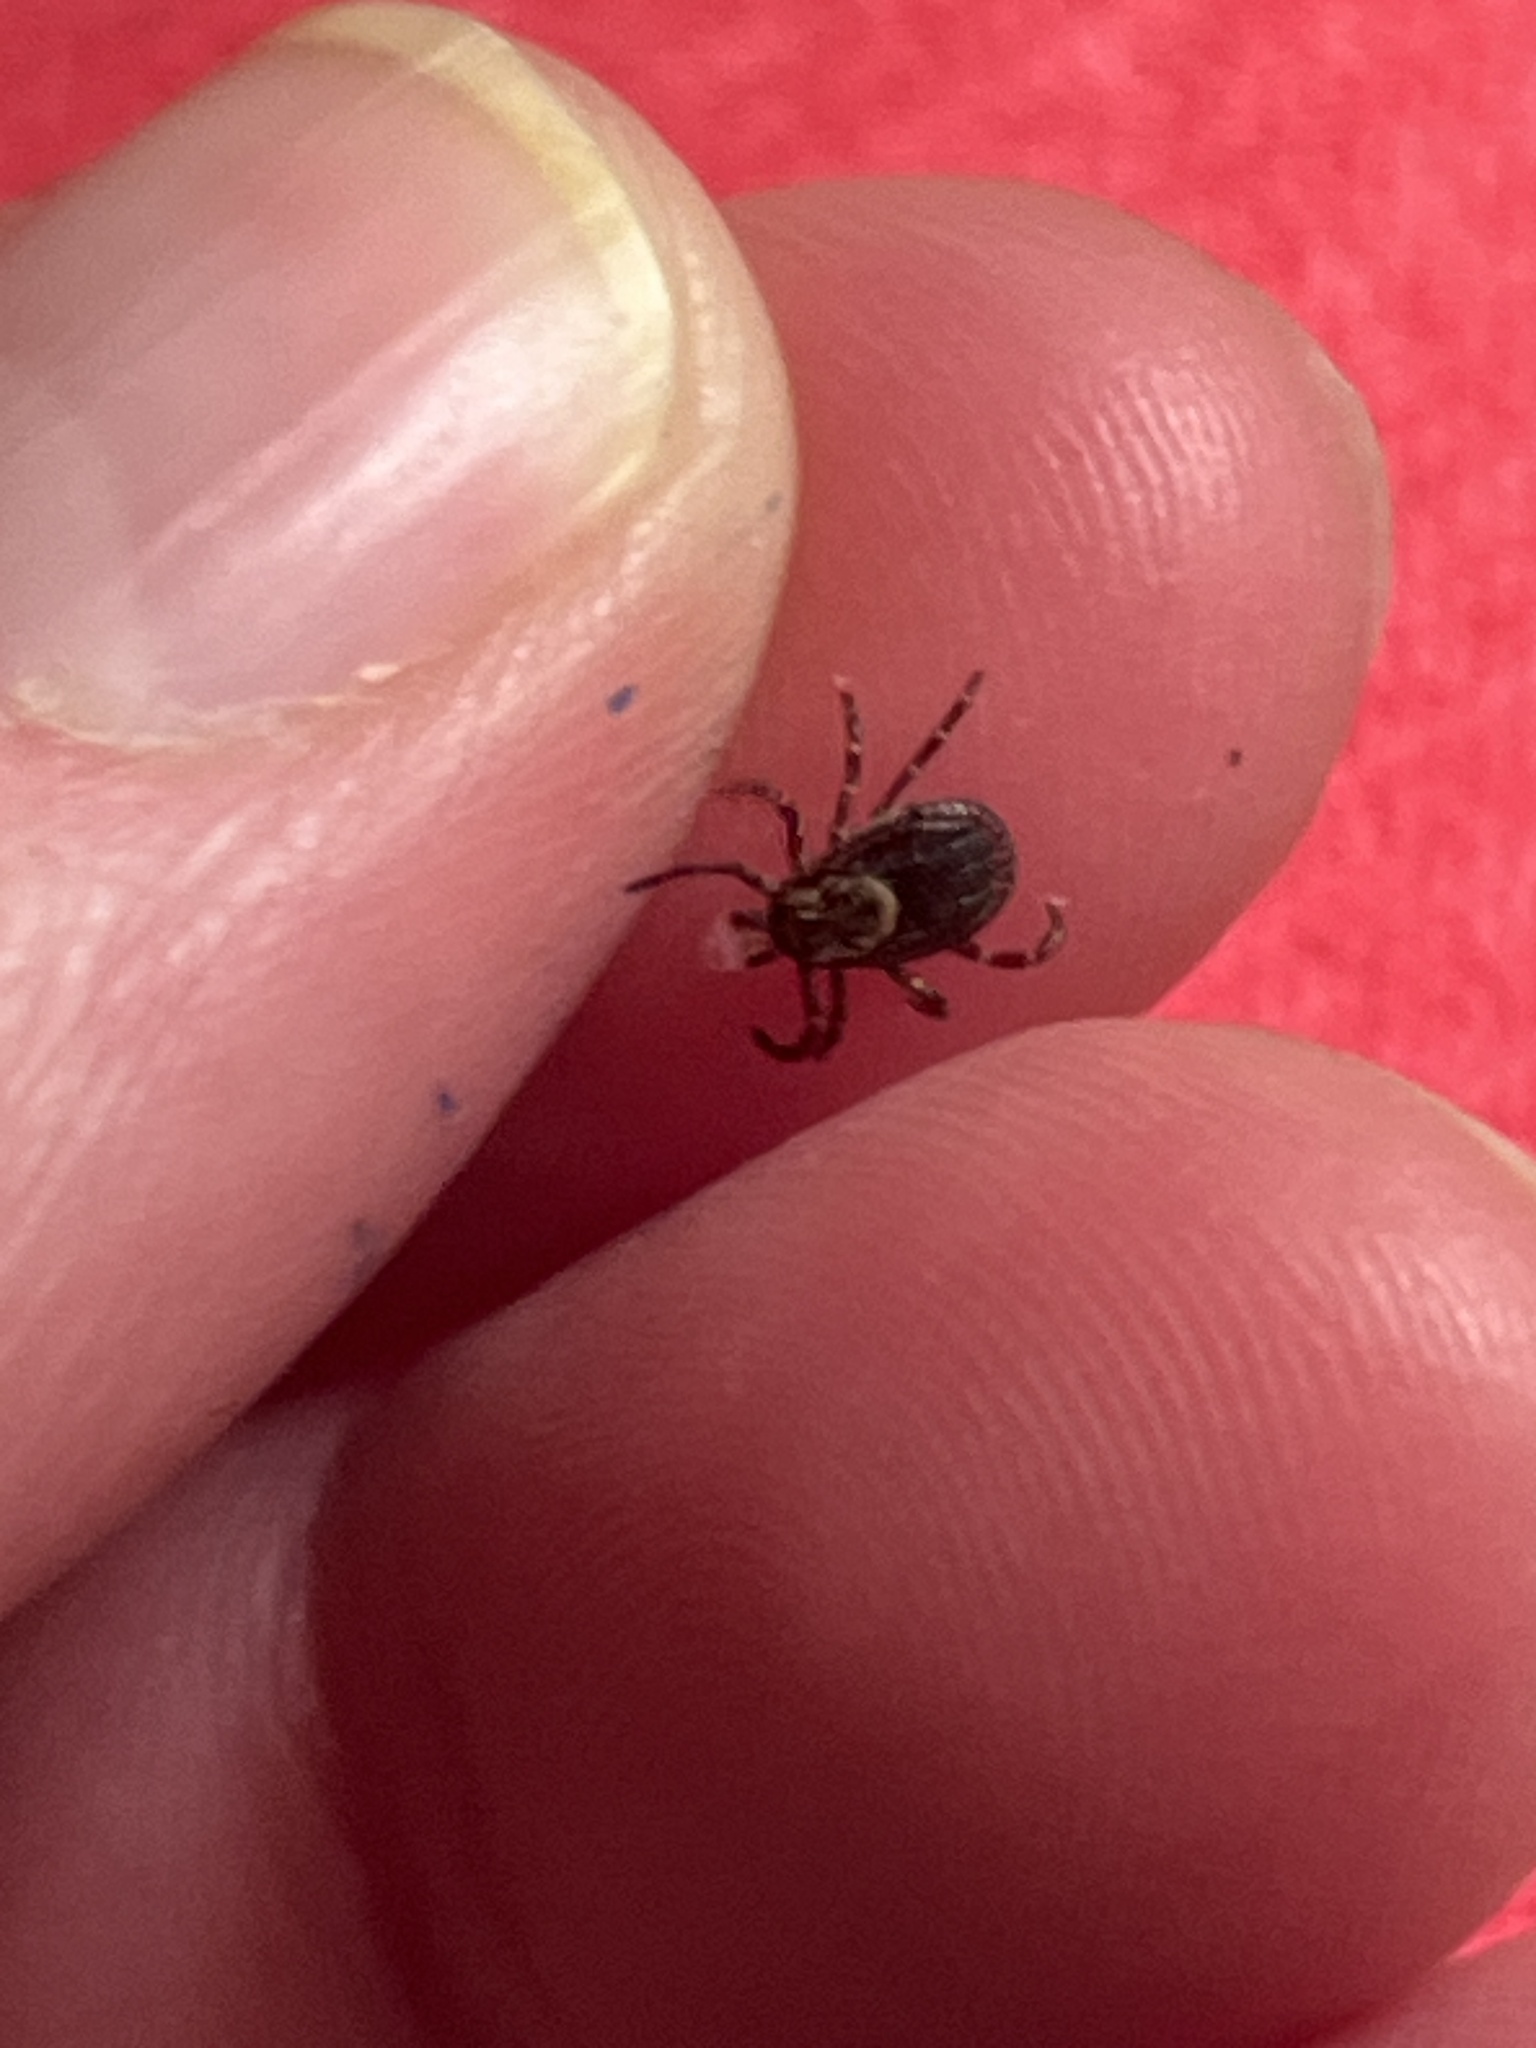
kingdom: Animalia
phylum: Arthropoda
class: Arachnida
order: Ixodida
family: Ixodidae
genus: Dermacentor
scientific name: Dermacentor variabilis
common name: American dog tick
